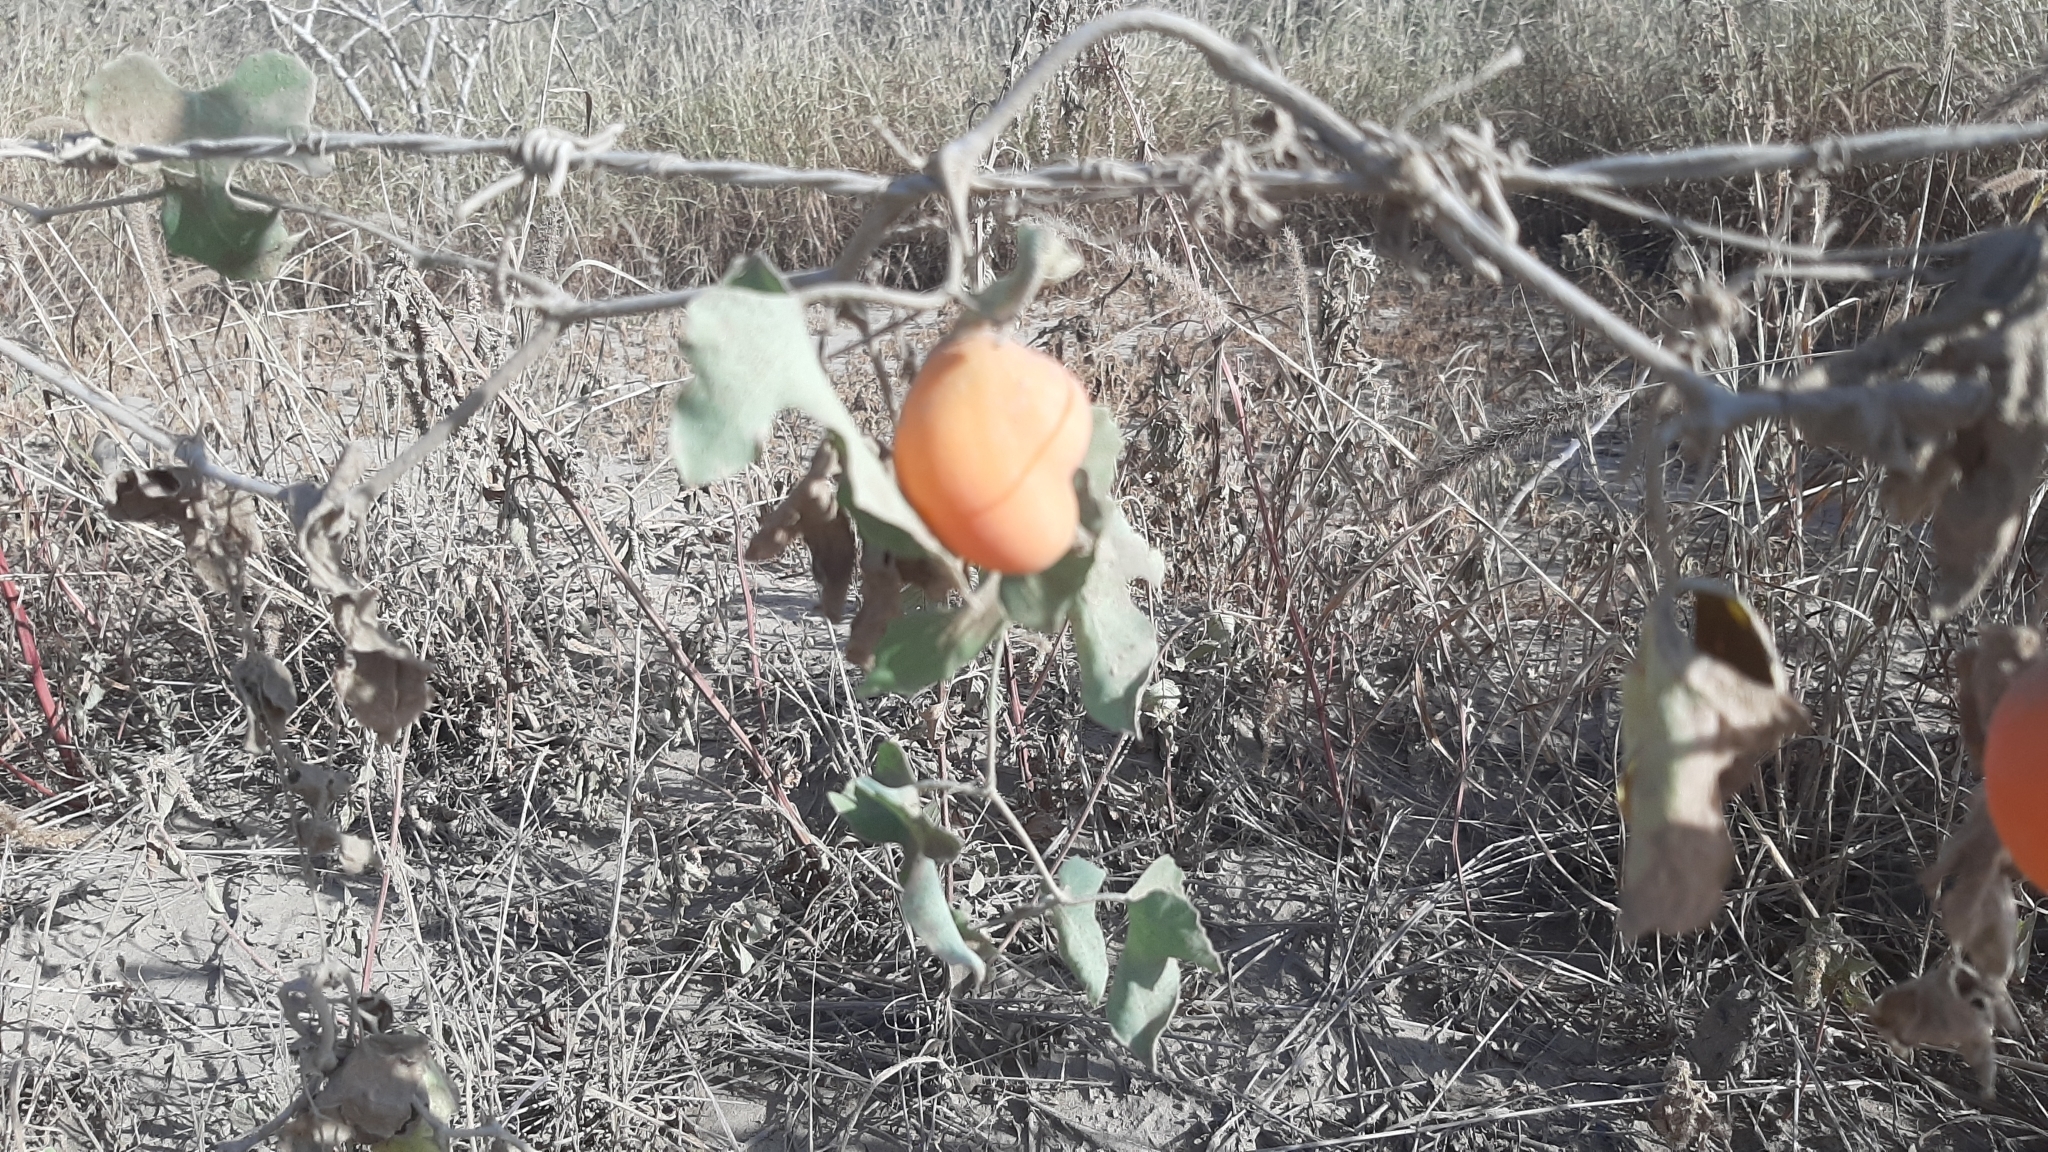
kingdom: Plantae
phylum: Tracheophyta
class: Magnoliopsida
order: Cucurbitales
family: Cucurbitaceae
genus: Ibervillea
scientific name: Ibervillea sonorae
